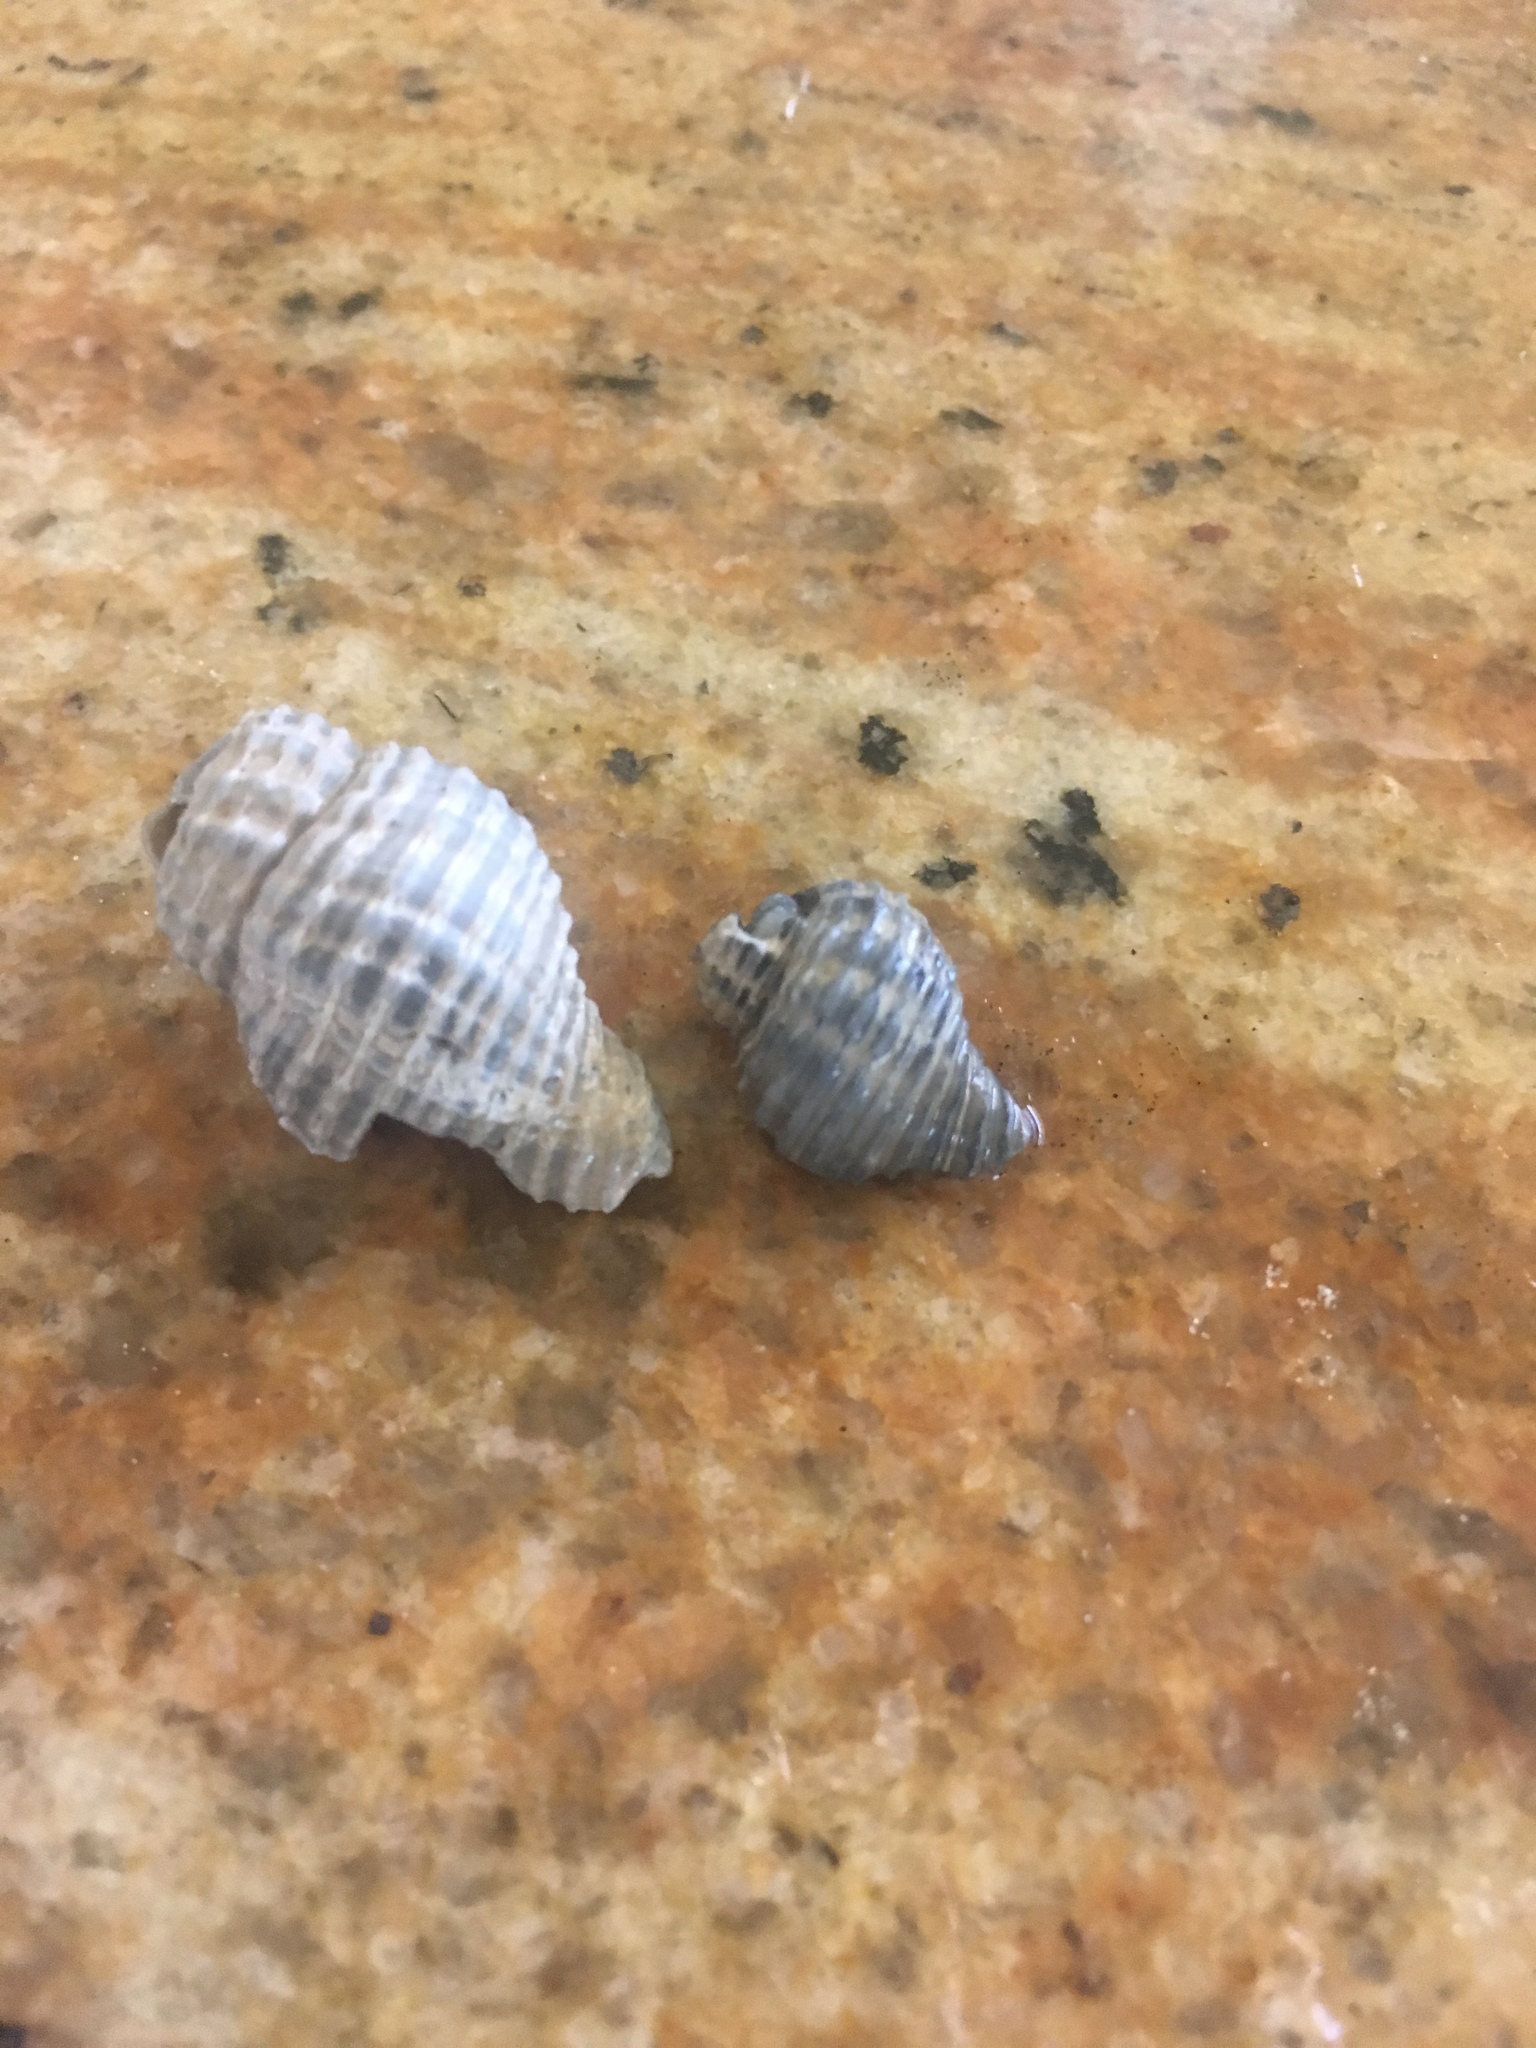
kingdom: Animalia
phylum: Mollusca
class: Gastropoda
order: Neogastropoda
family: Pisaniidae
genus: Solenosteira
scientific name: Solenosteira cancellaria
